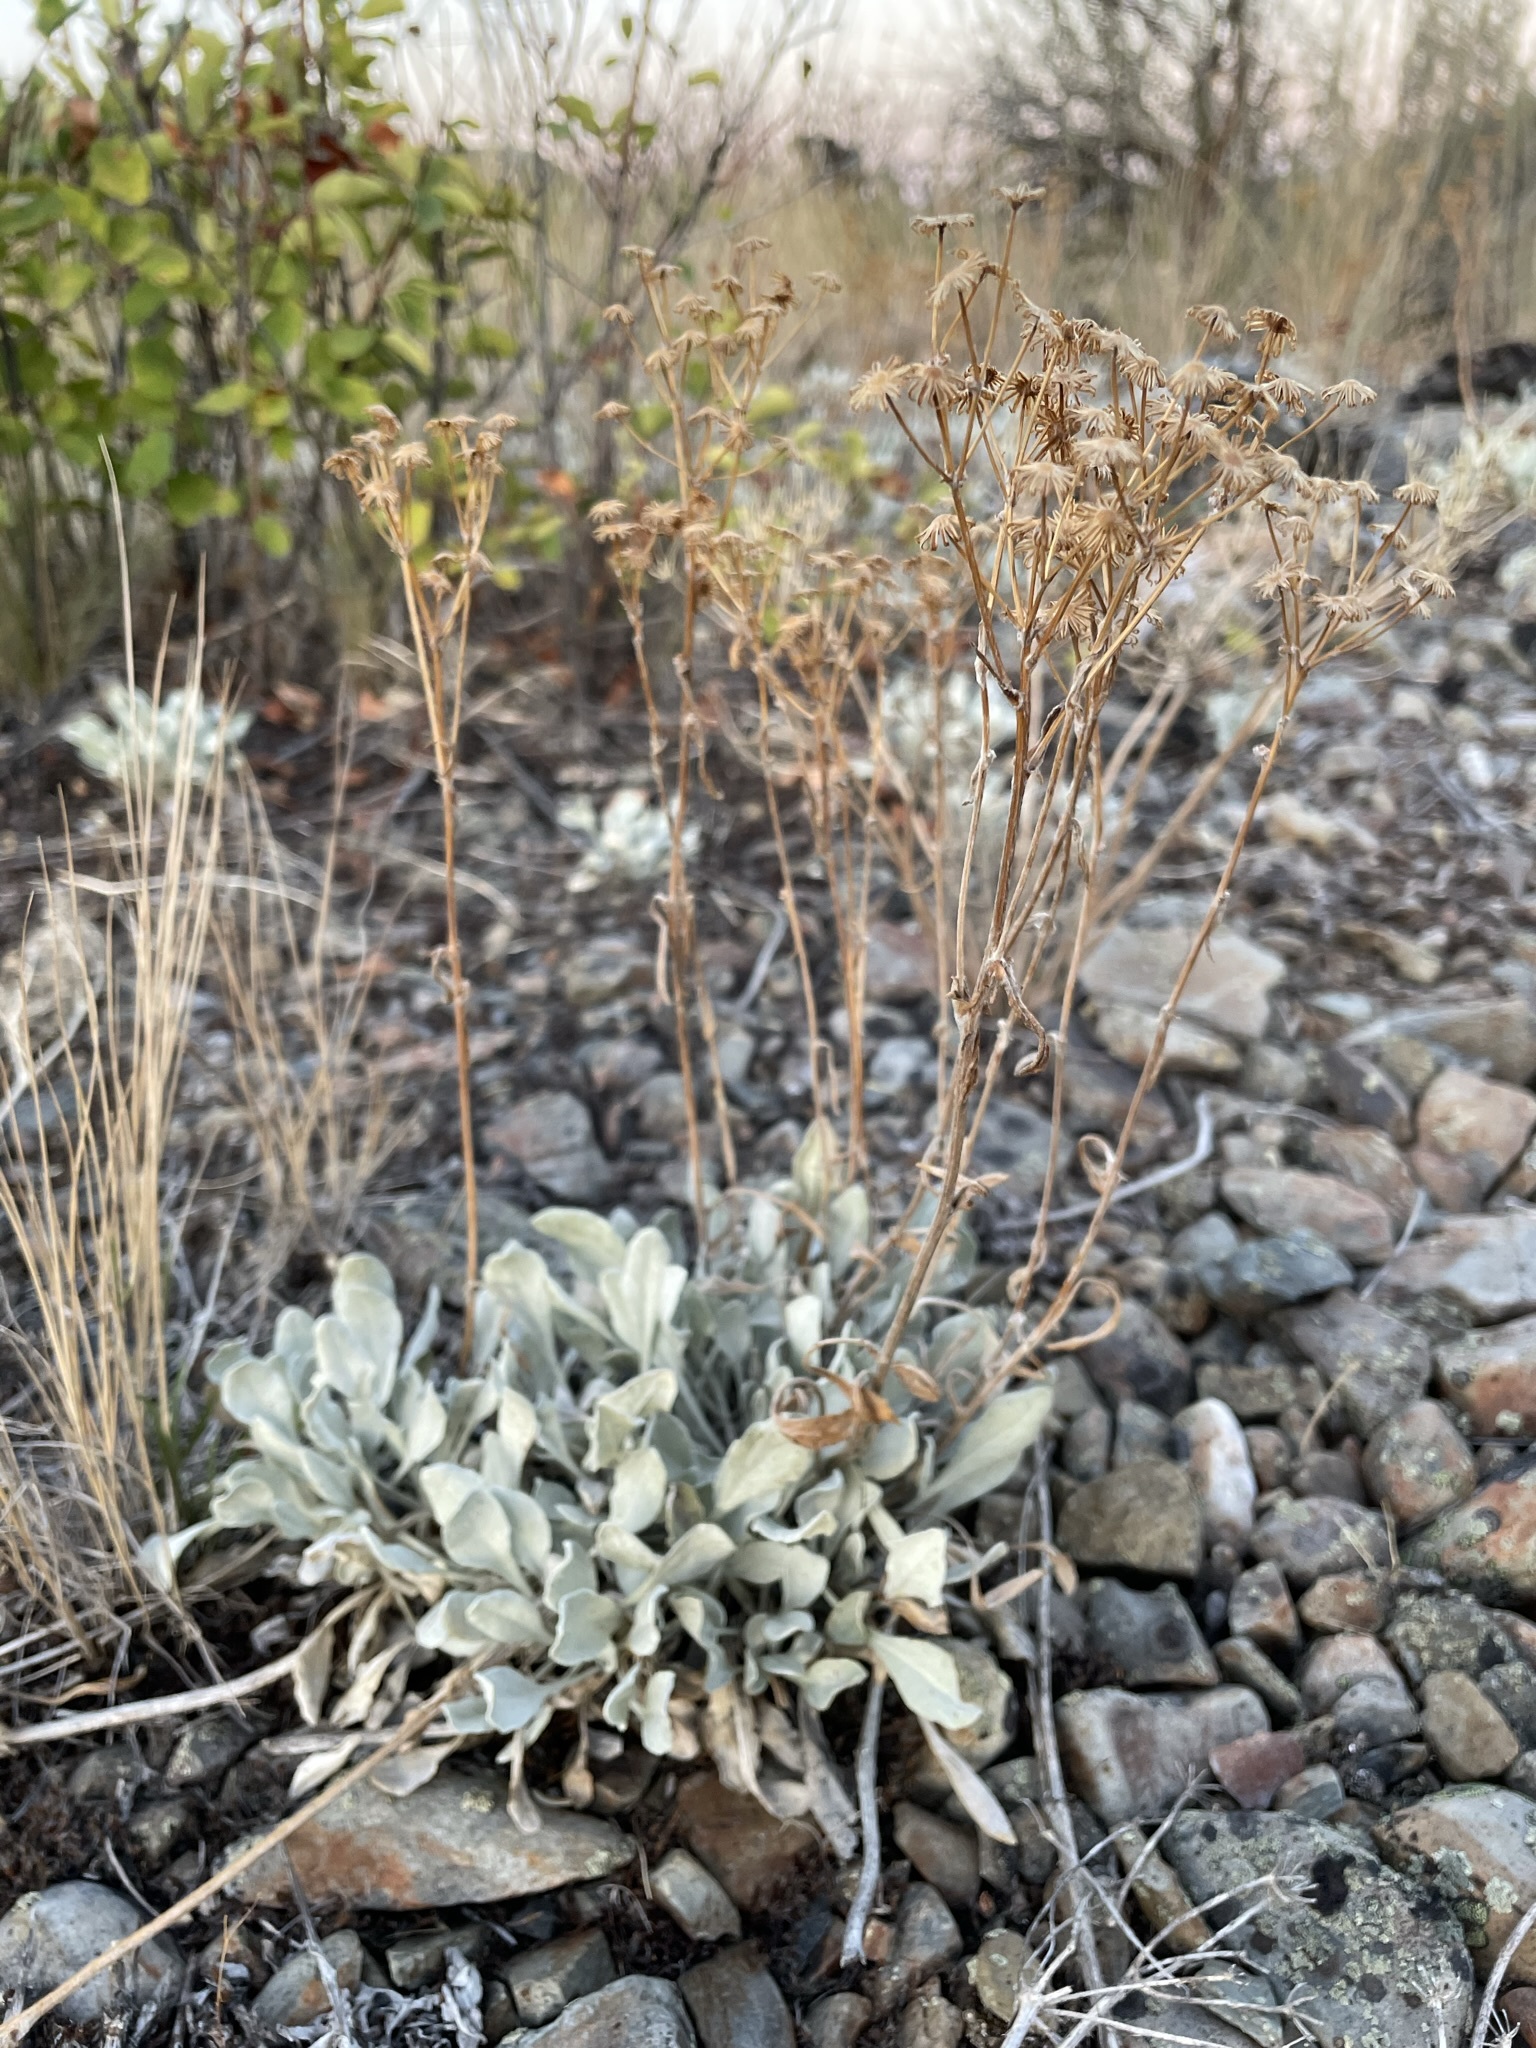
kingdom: Plantae
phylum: Tracheophyta
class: Magnoliopsida
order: Asterales
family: Asteraceae
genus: Packera
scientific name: Packera cana
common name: Woolly groundsel
